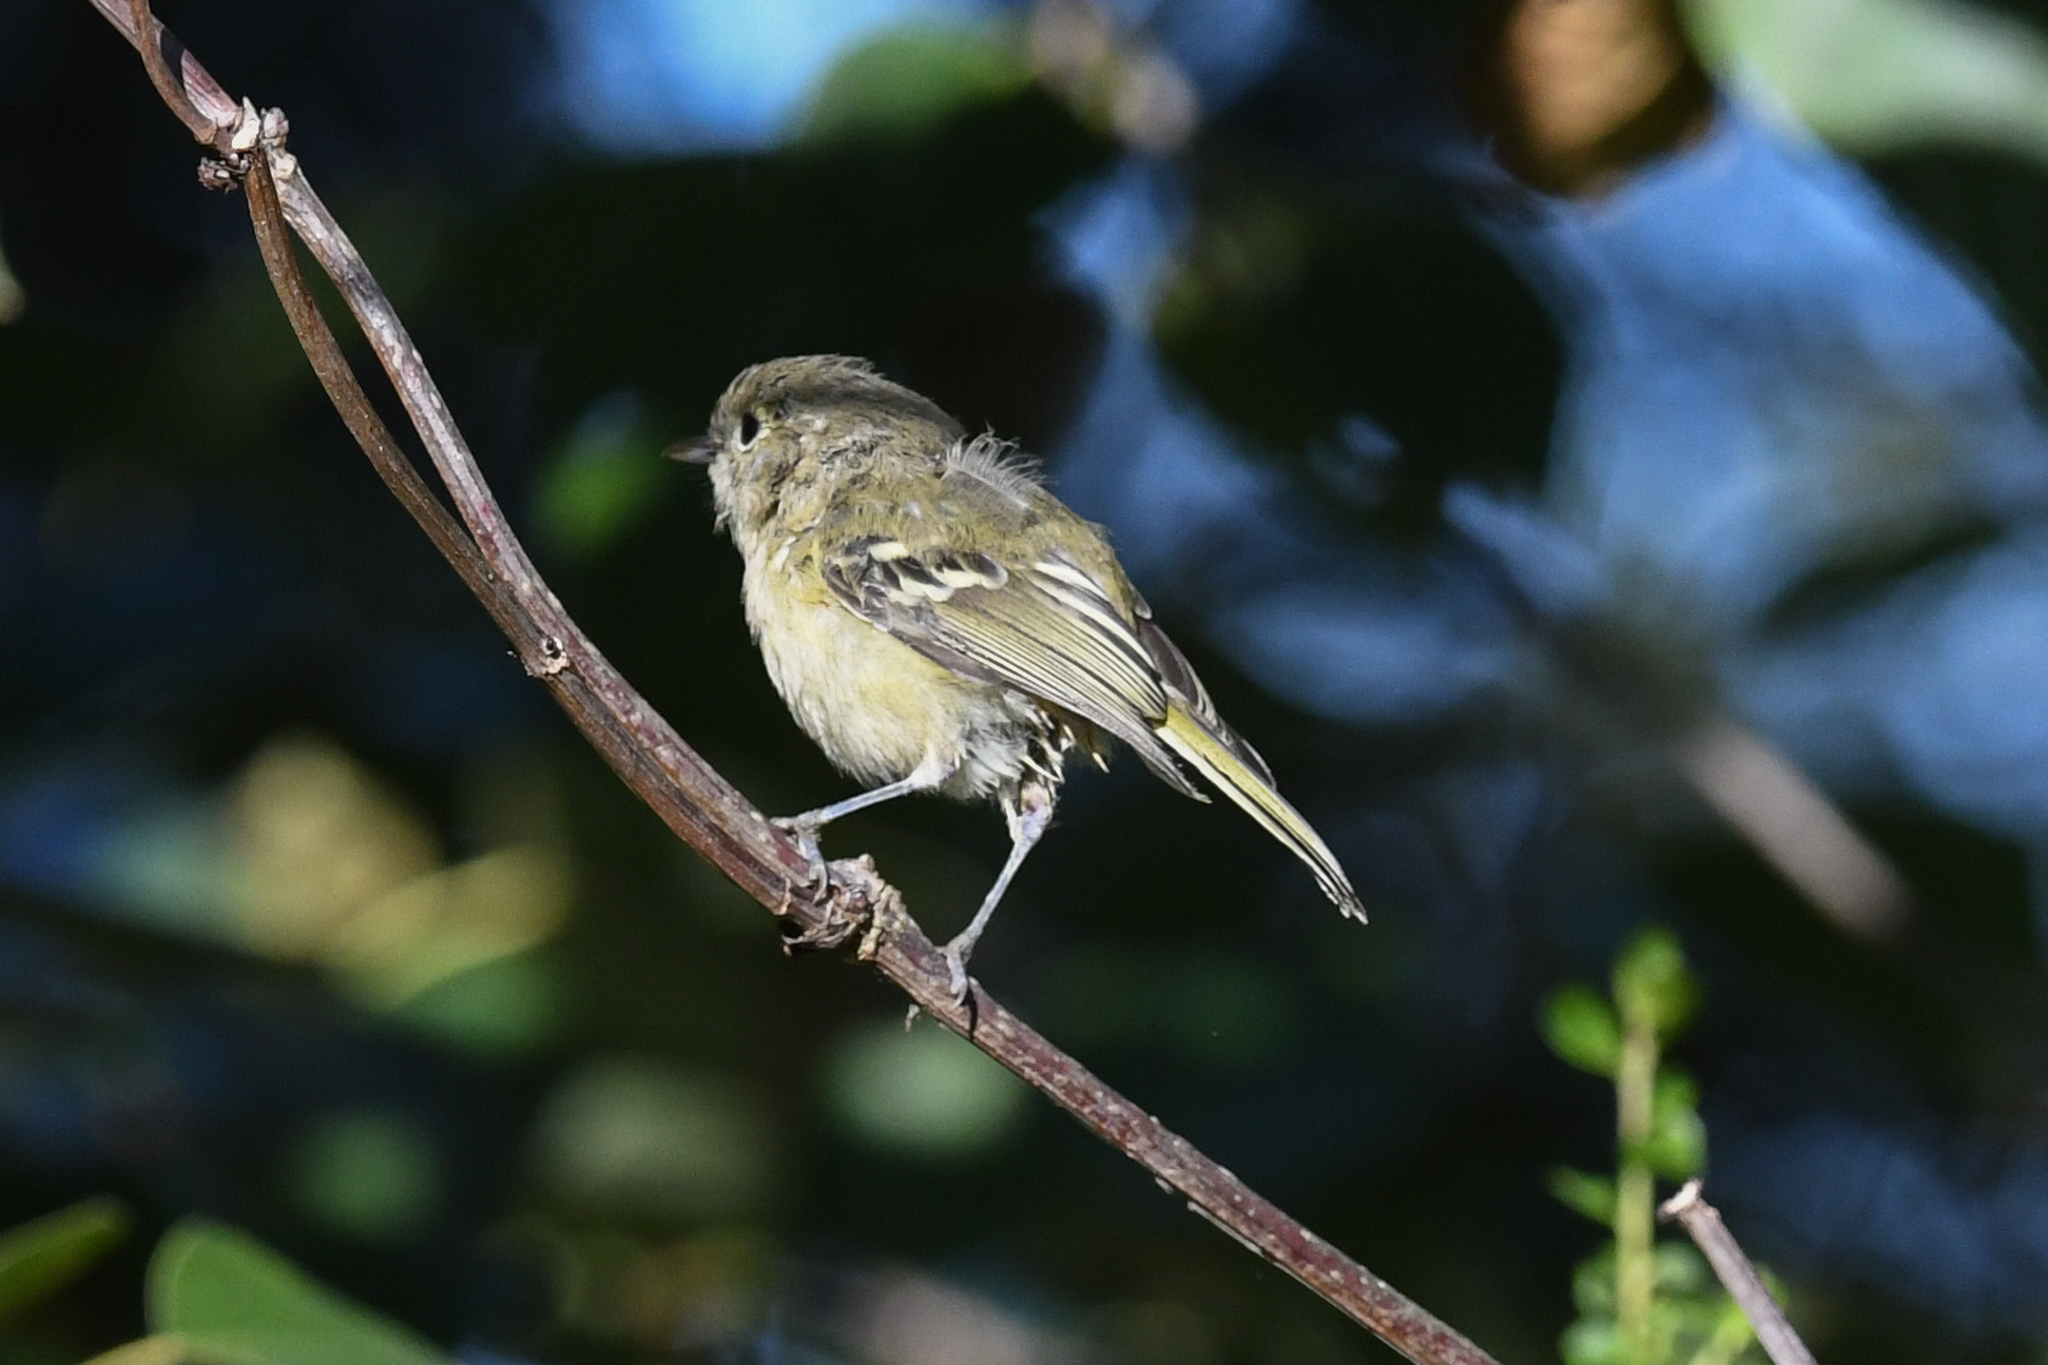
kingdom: Animalia
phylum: Chordata
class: Aves
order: Passeriformes
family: Vireonidae
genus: Vireo
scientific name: Vireo huttoni
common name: Hutton's vireo
